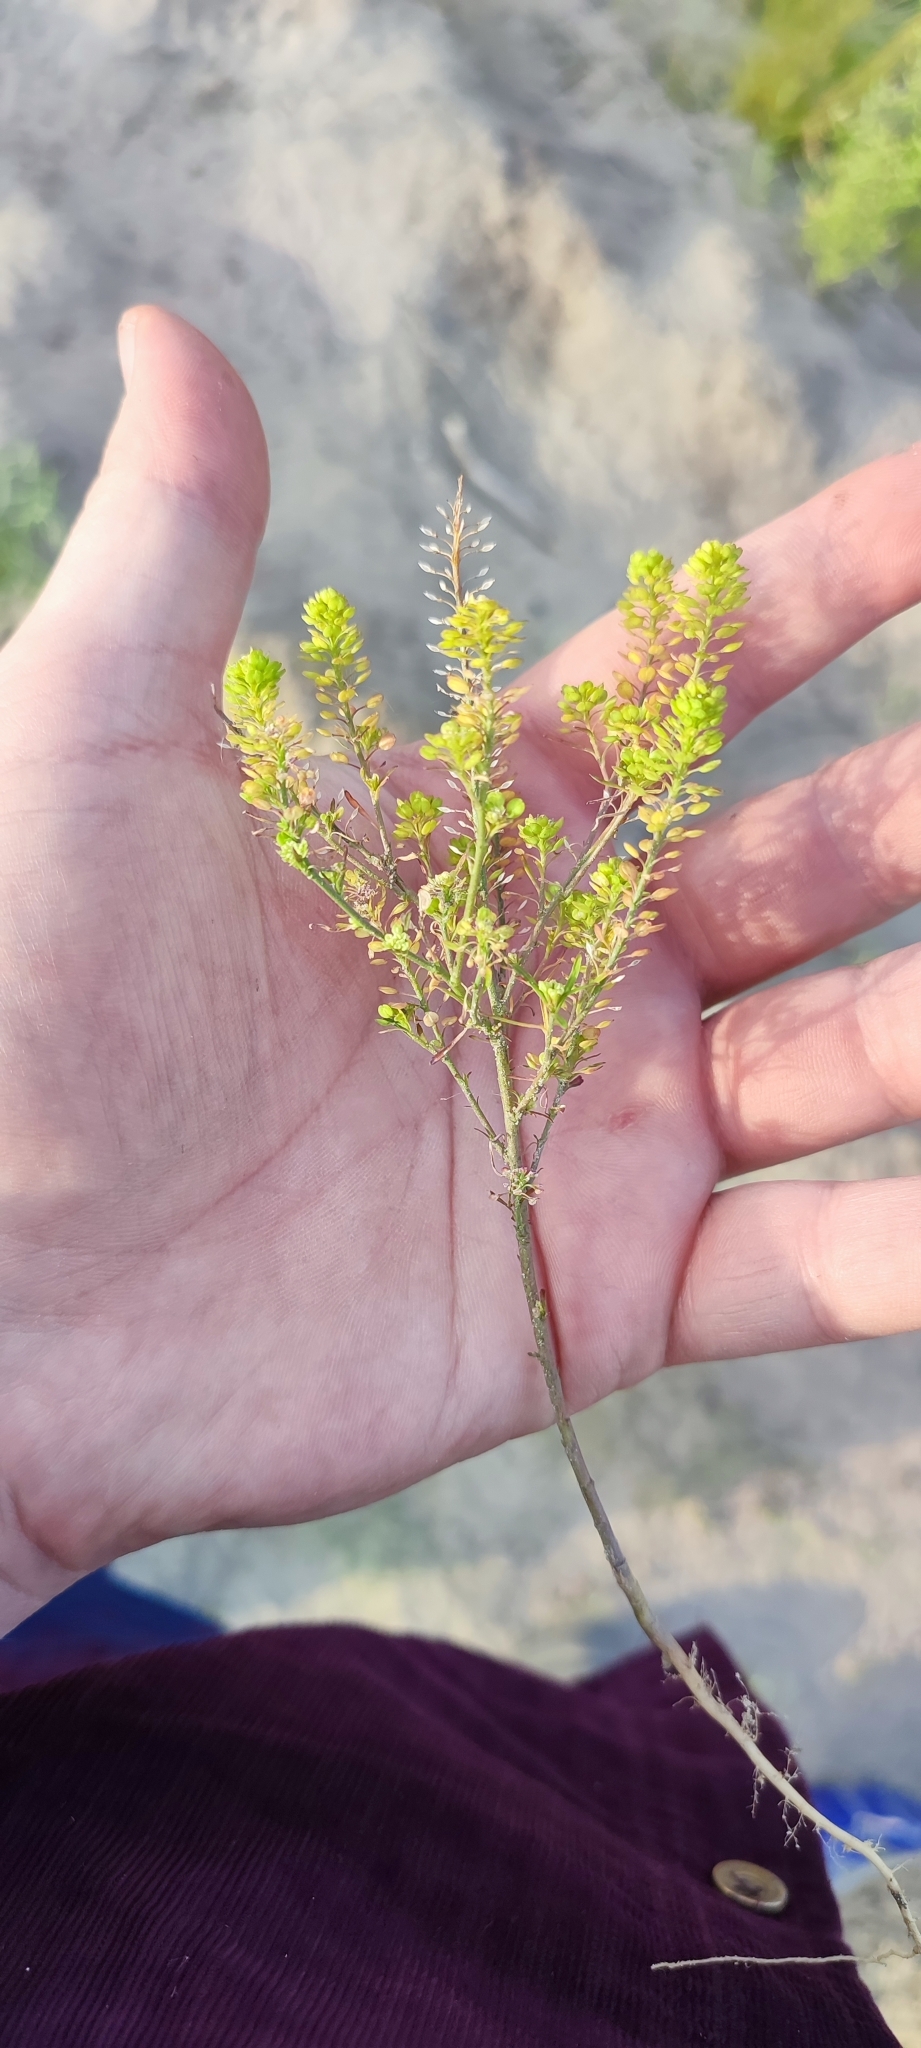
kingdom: Plantae
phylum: Tracheophyta
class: Magnoliopsida
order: Brassicales
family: Brassicaceae
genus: Lepidium
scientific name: Lepidium densiflorum
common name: Miner's pepperwort
